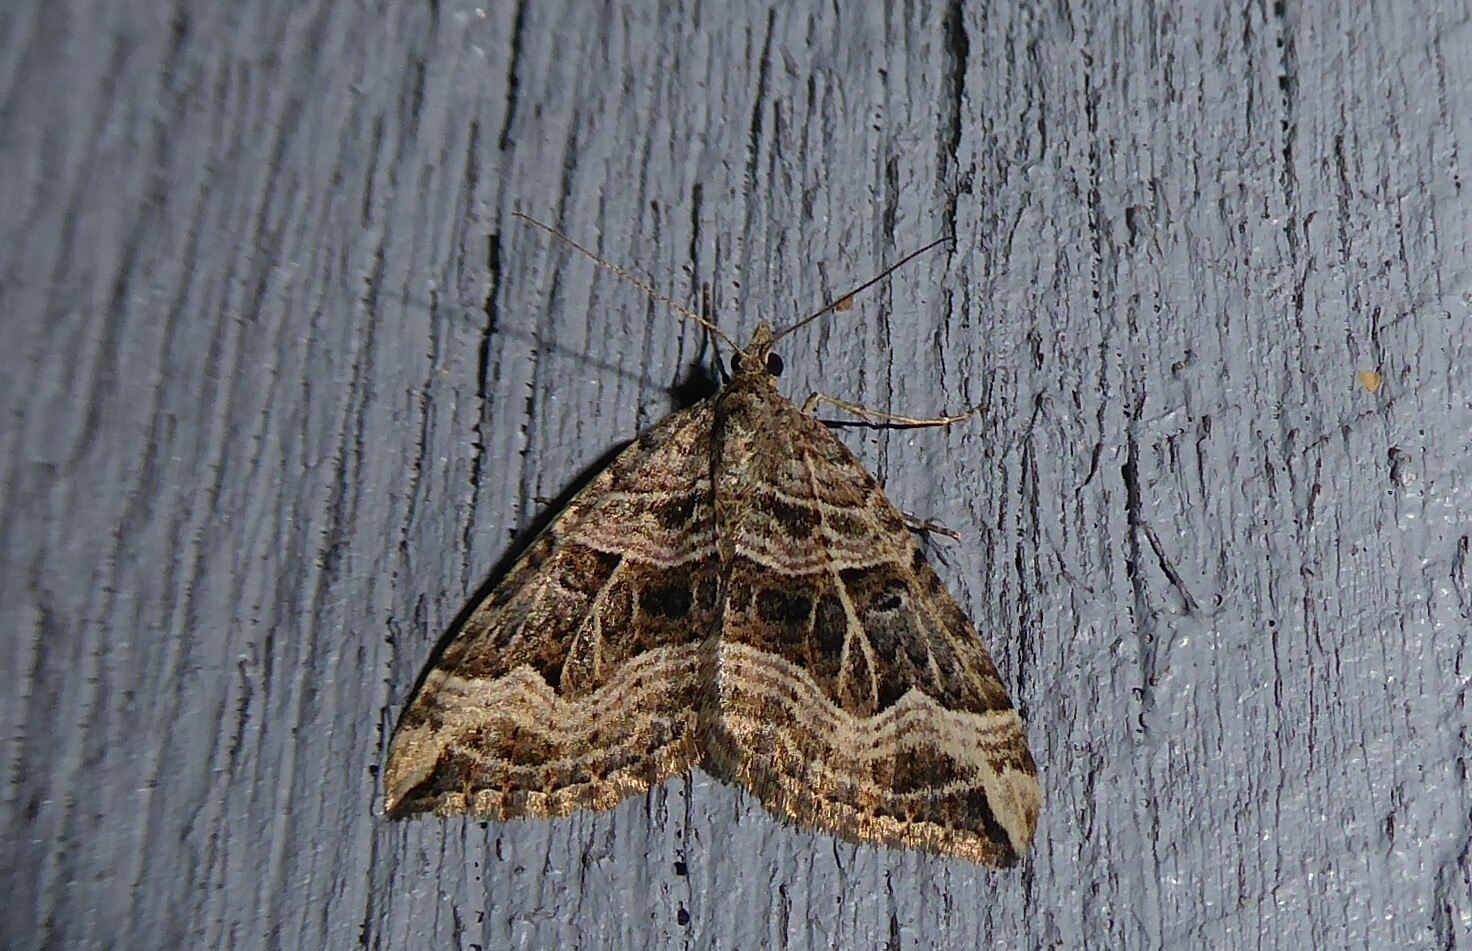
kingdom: Animalia
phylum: Arthropoda
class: Insecta
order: Lepidoptera
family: Geometridae
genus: Xanthorhoe
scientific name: Xanthorhoe semifissata
